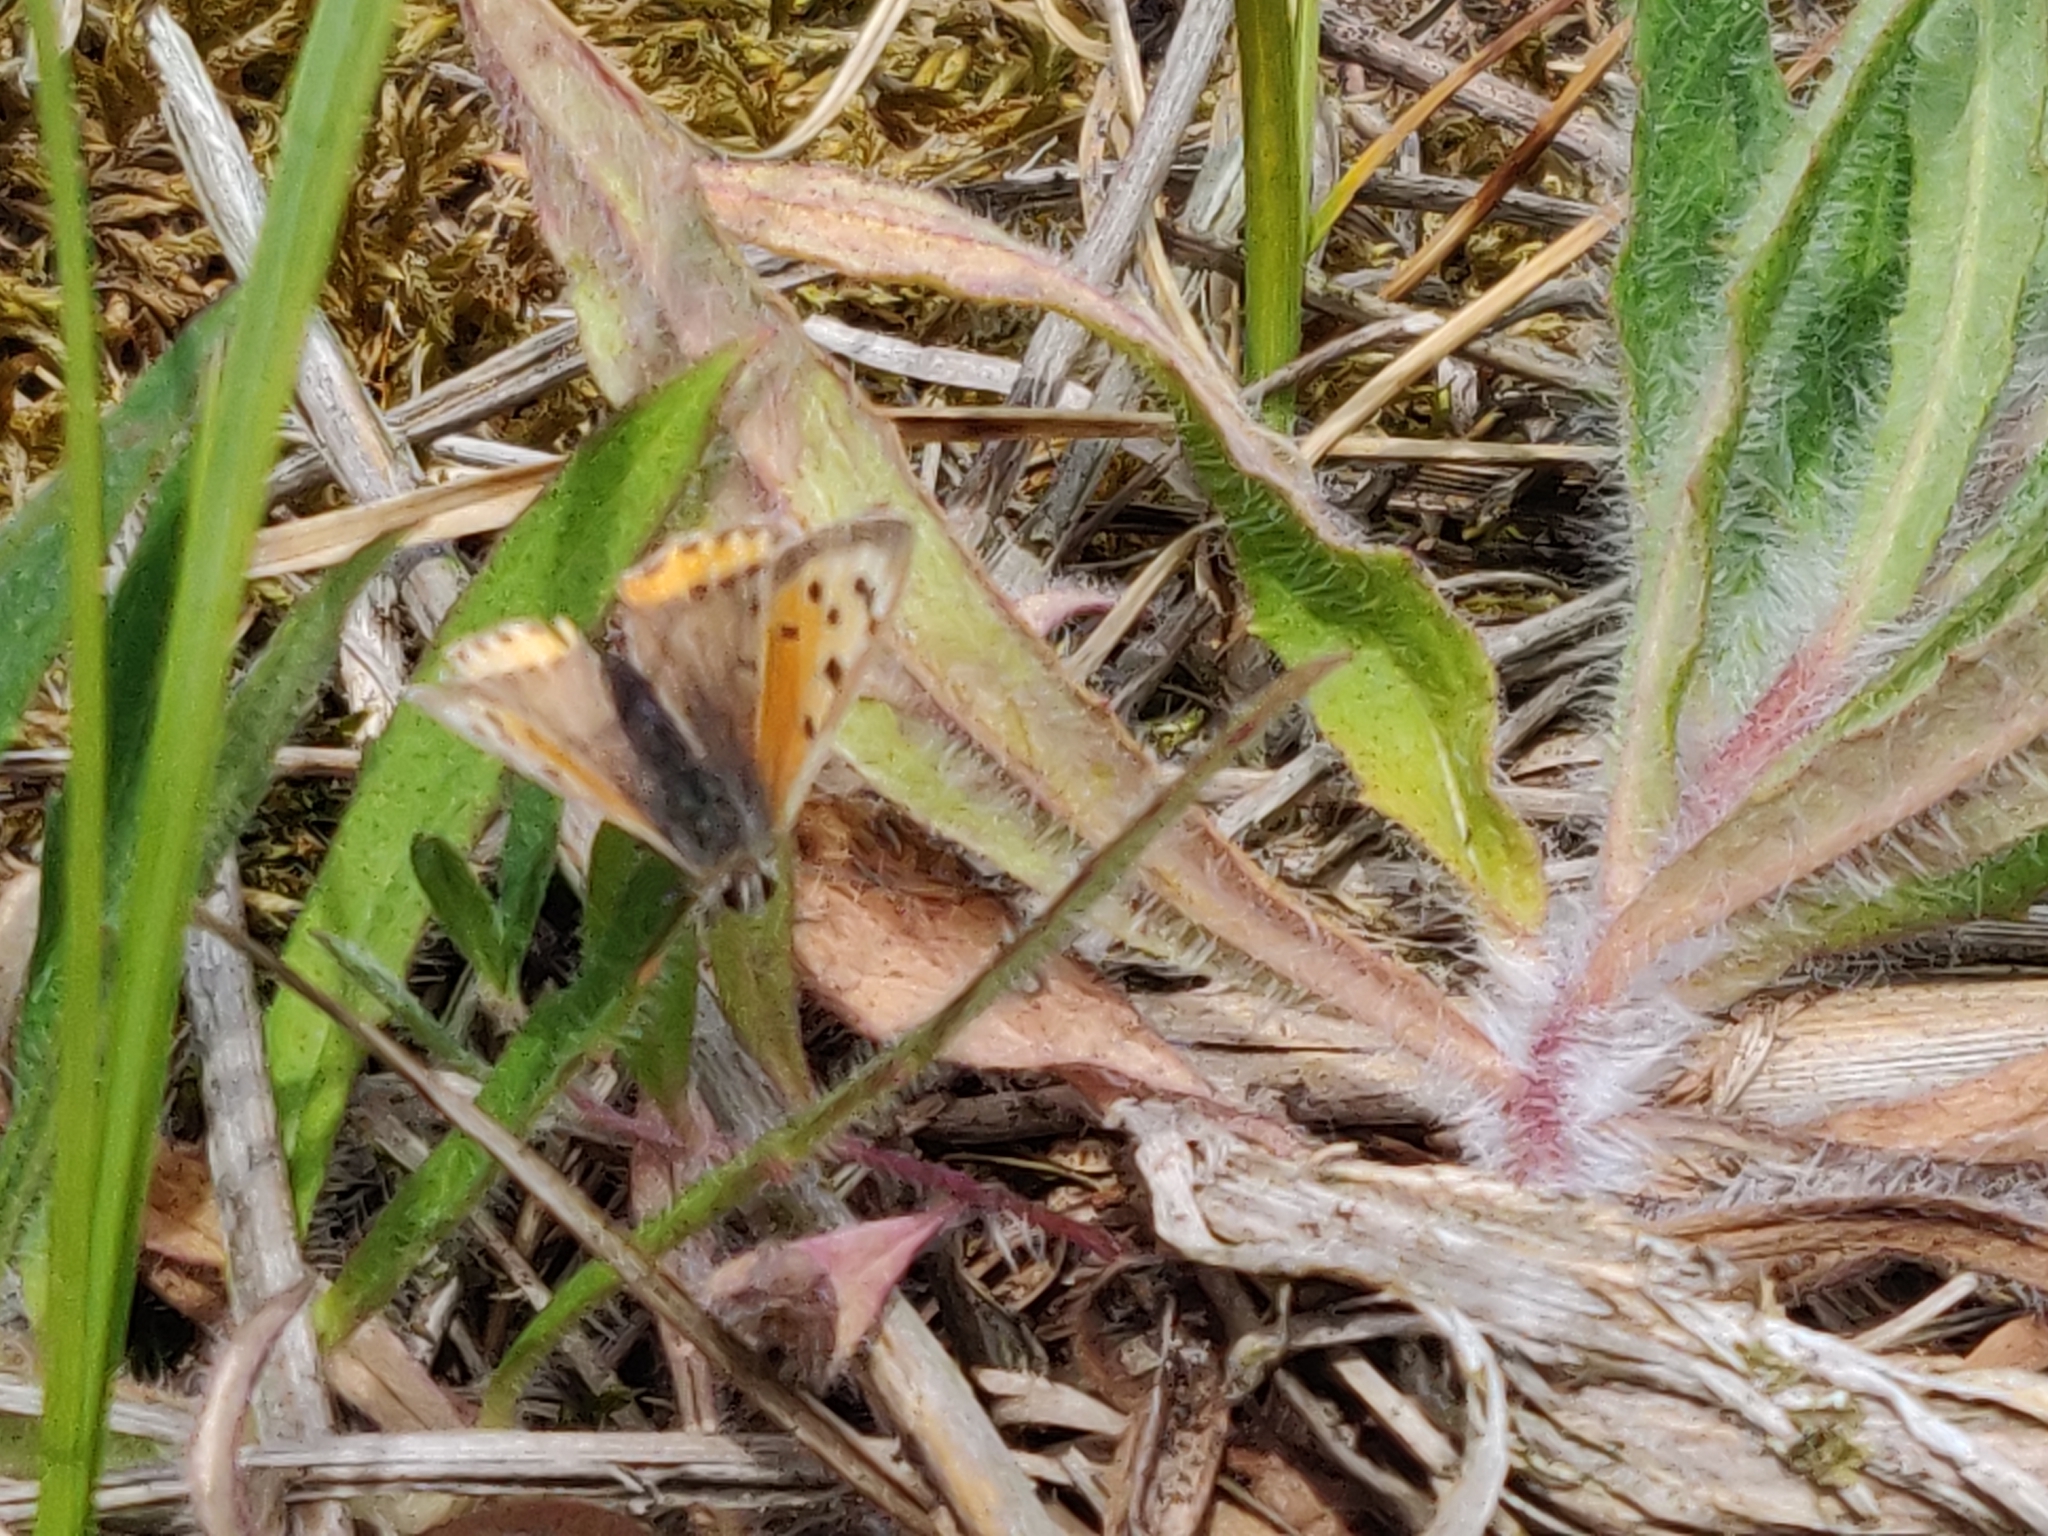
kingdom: Animalia
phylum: Arthropoda
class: Insecta
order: Lepidoptera
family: Lycaenidae
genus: Lycaena
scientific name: Lycaena phlaeas
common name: Small copper
